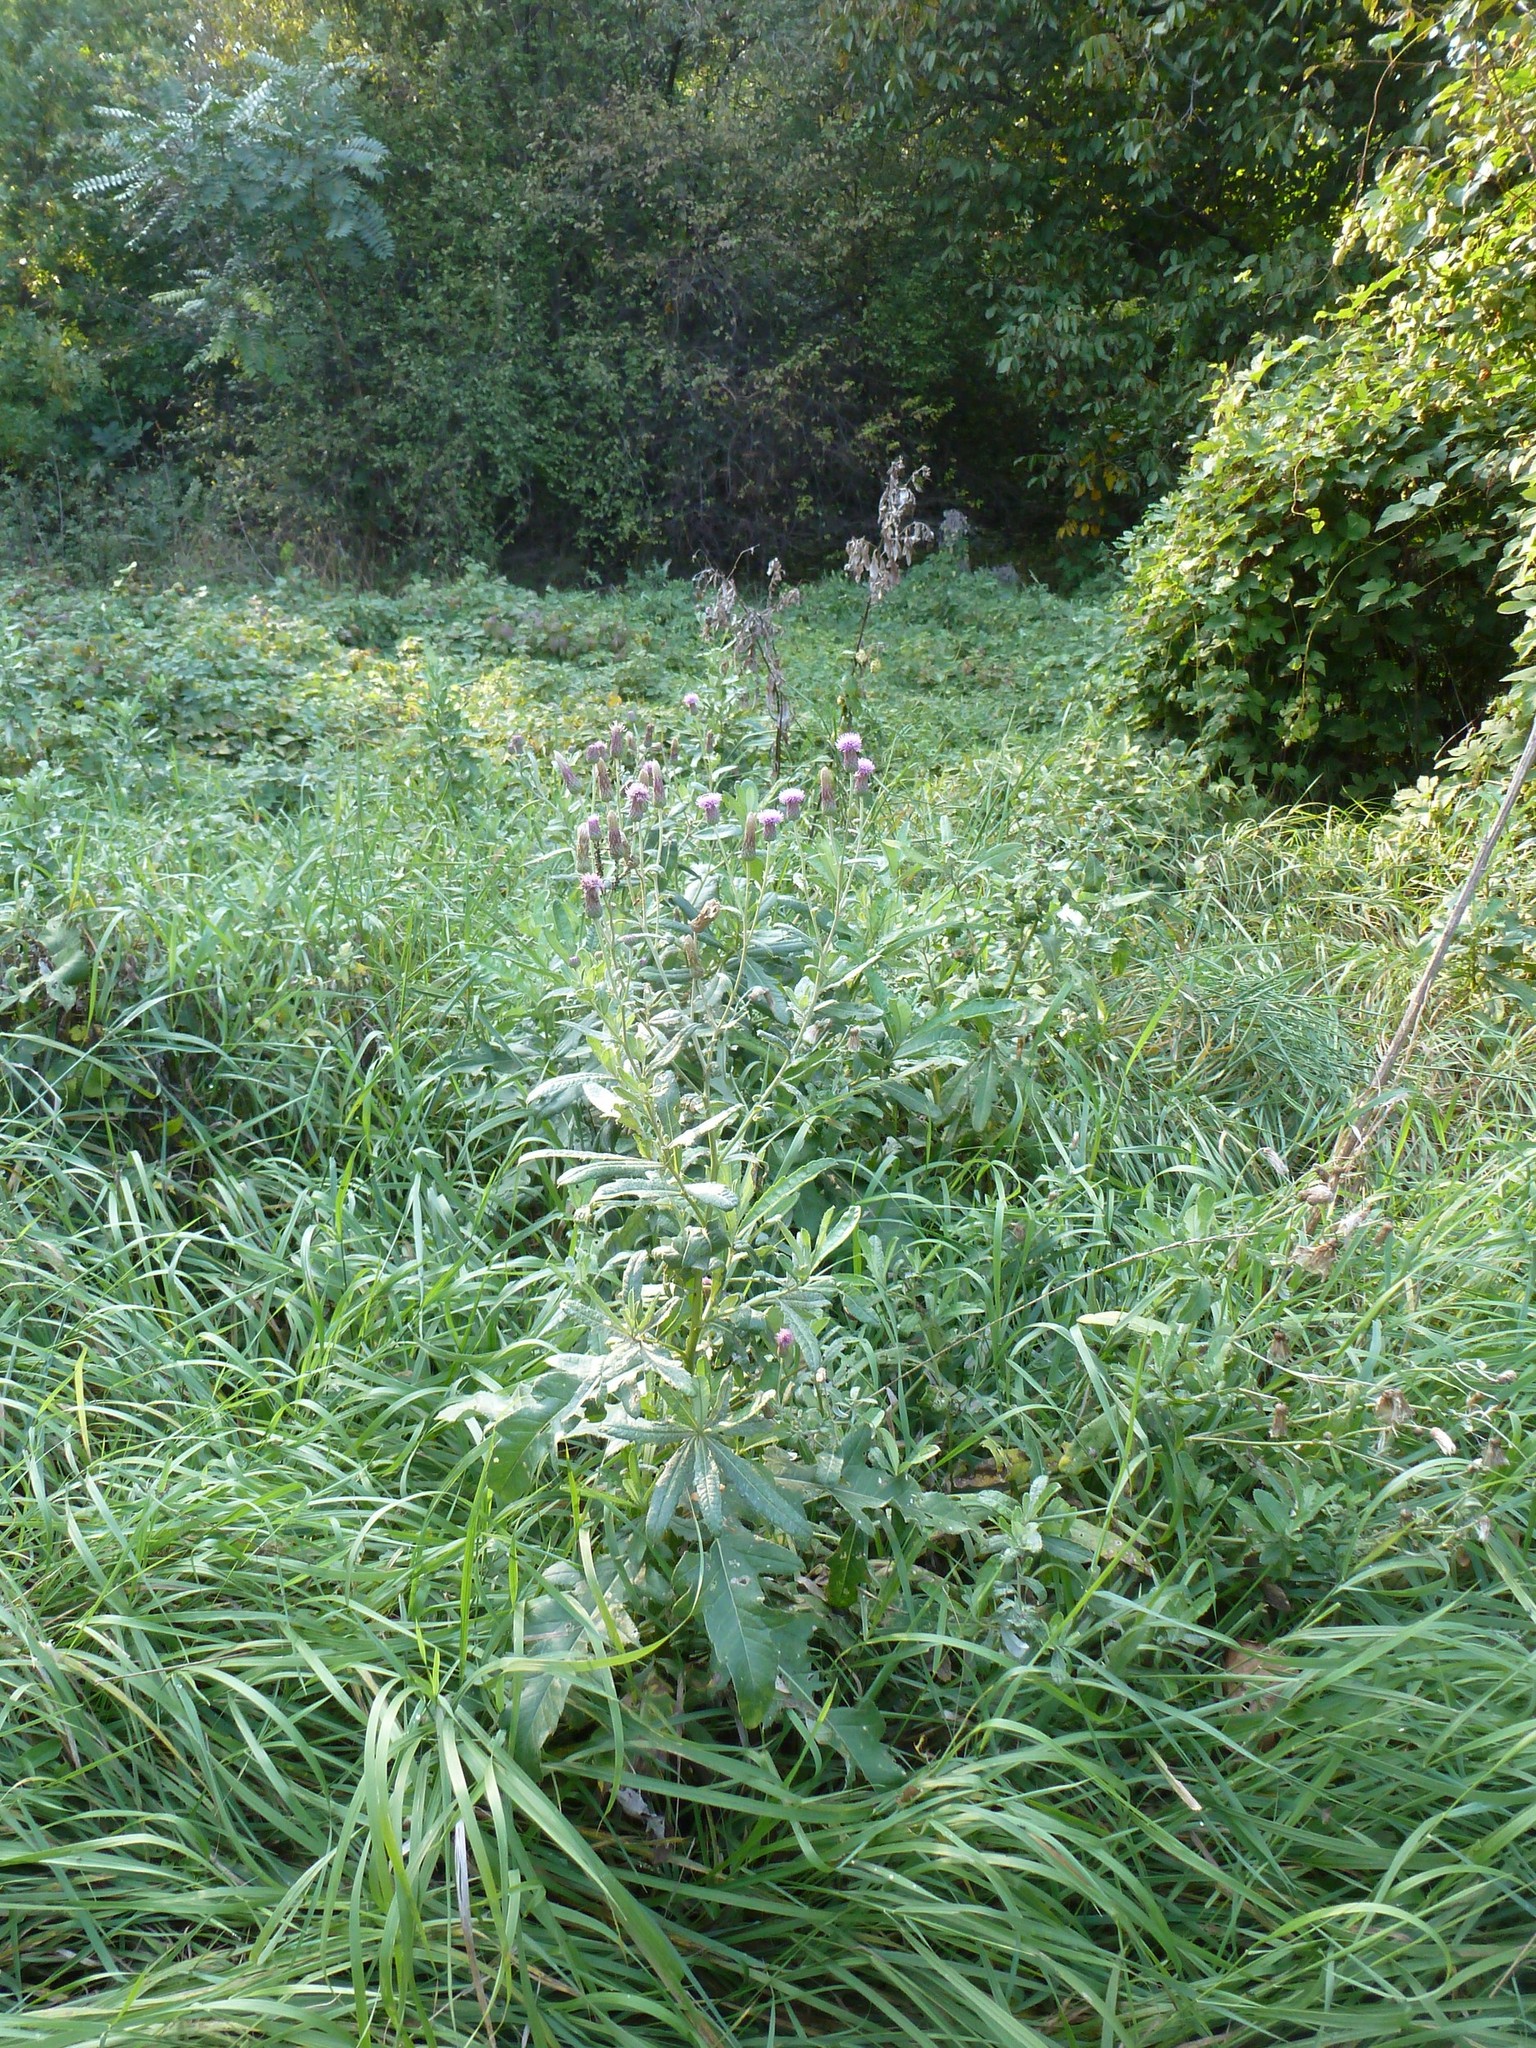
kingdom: Plantae
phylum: Tracheophyta
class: Magnoliopsida
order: Asterales
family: Asteraceae
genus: Cirsium
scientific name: Cirsium arvense
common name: Creeping thistle
